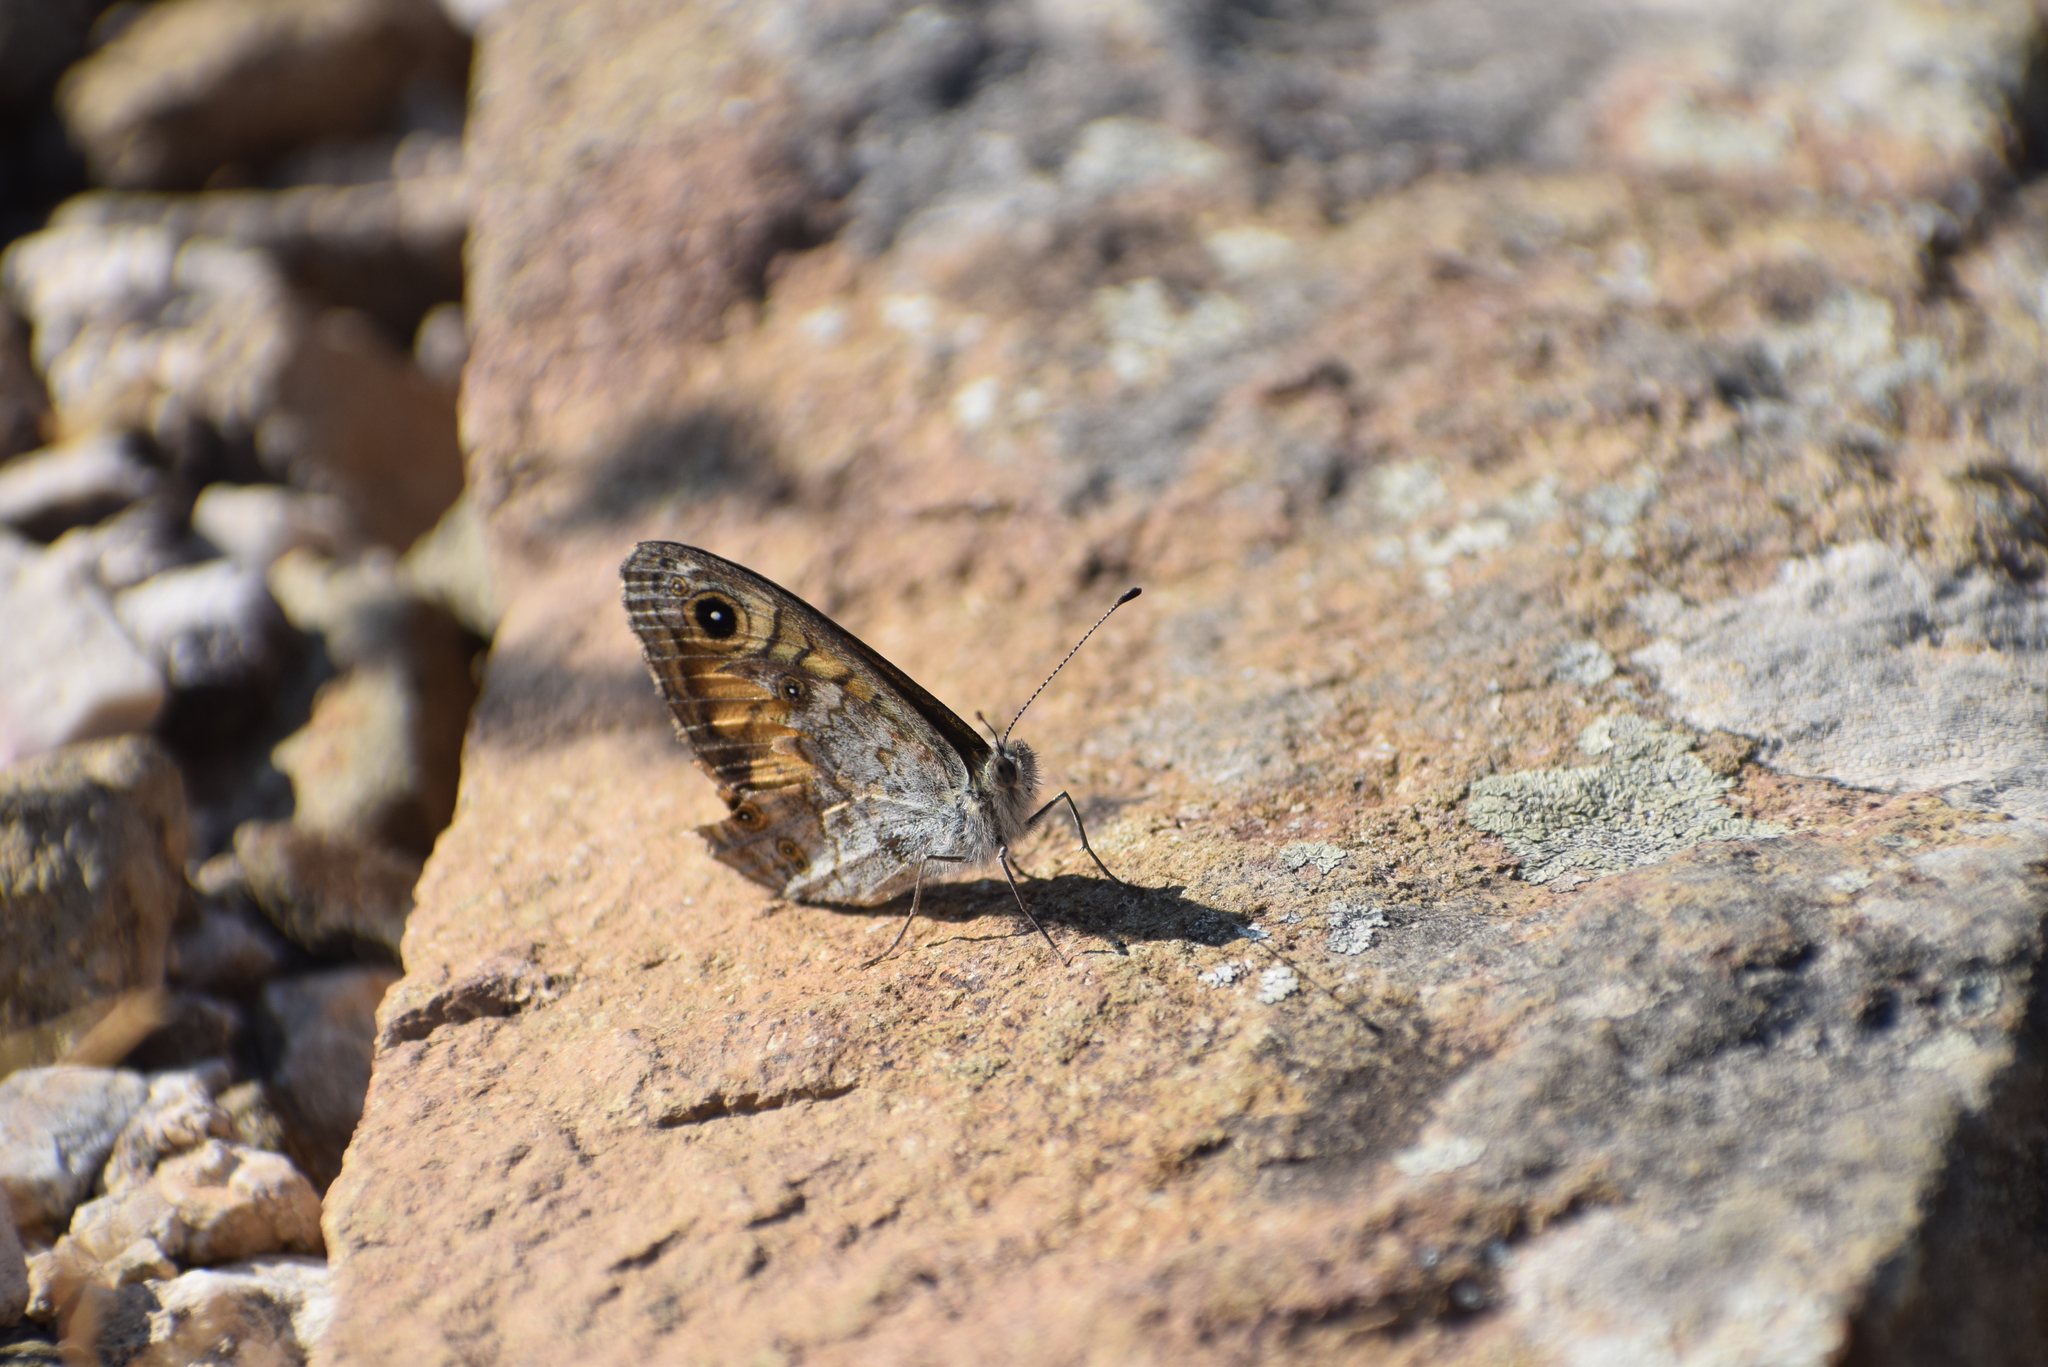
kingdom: Animalia
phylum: Arthropoda
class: Insecta
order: Lepidoptera
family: Nymphalidae
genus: Pararge
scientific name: Pararge Lasiommata megera
